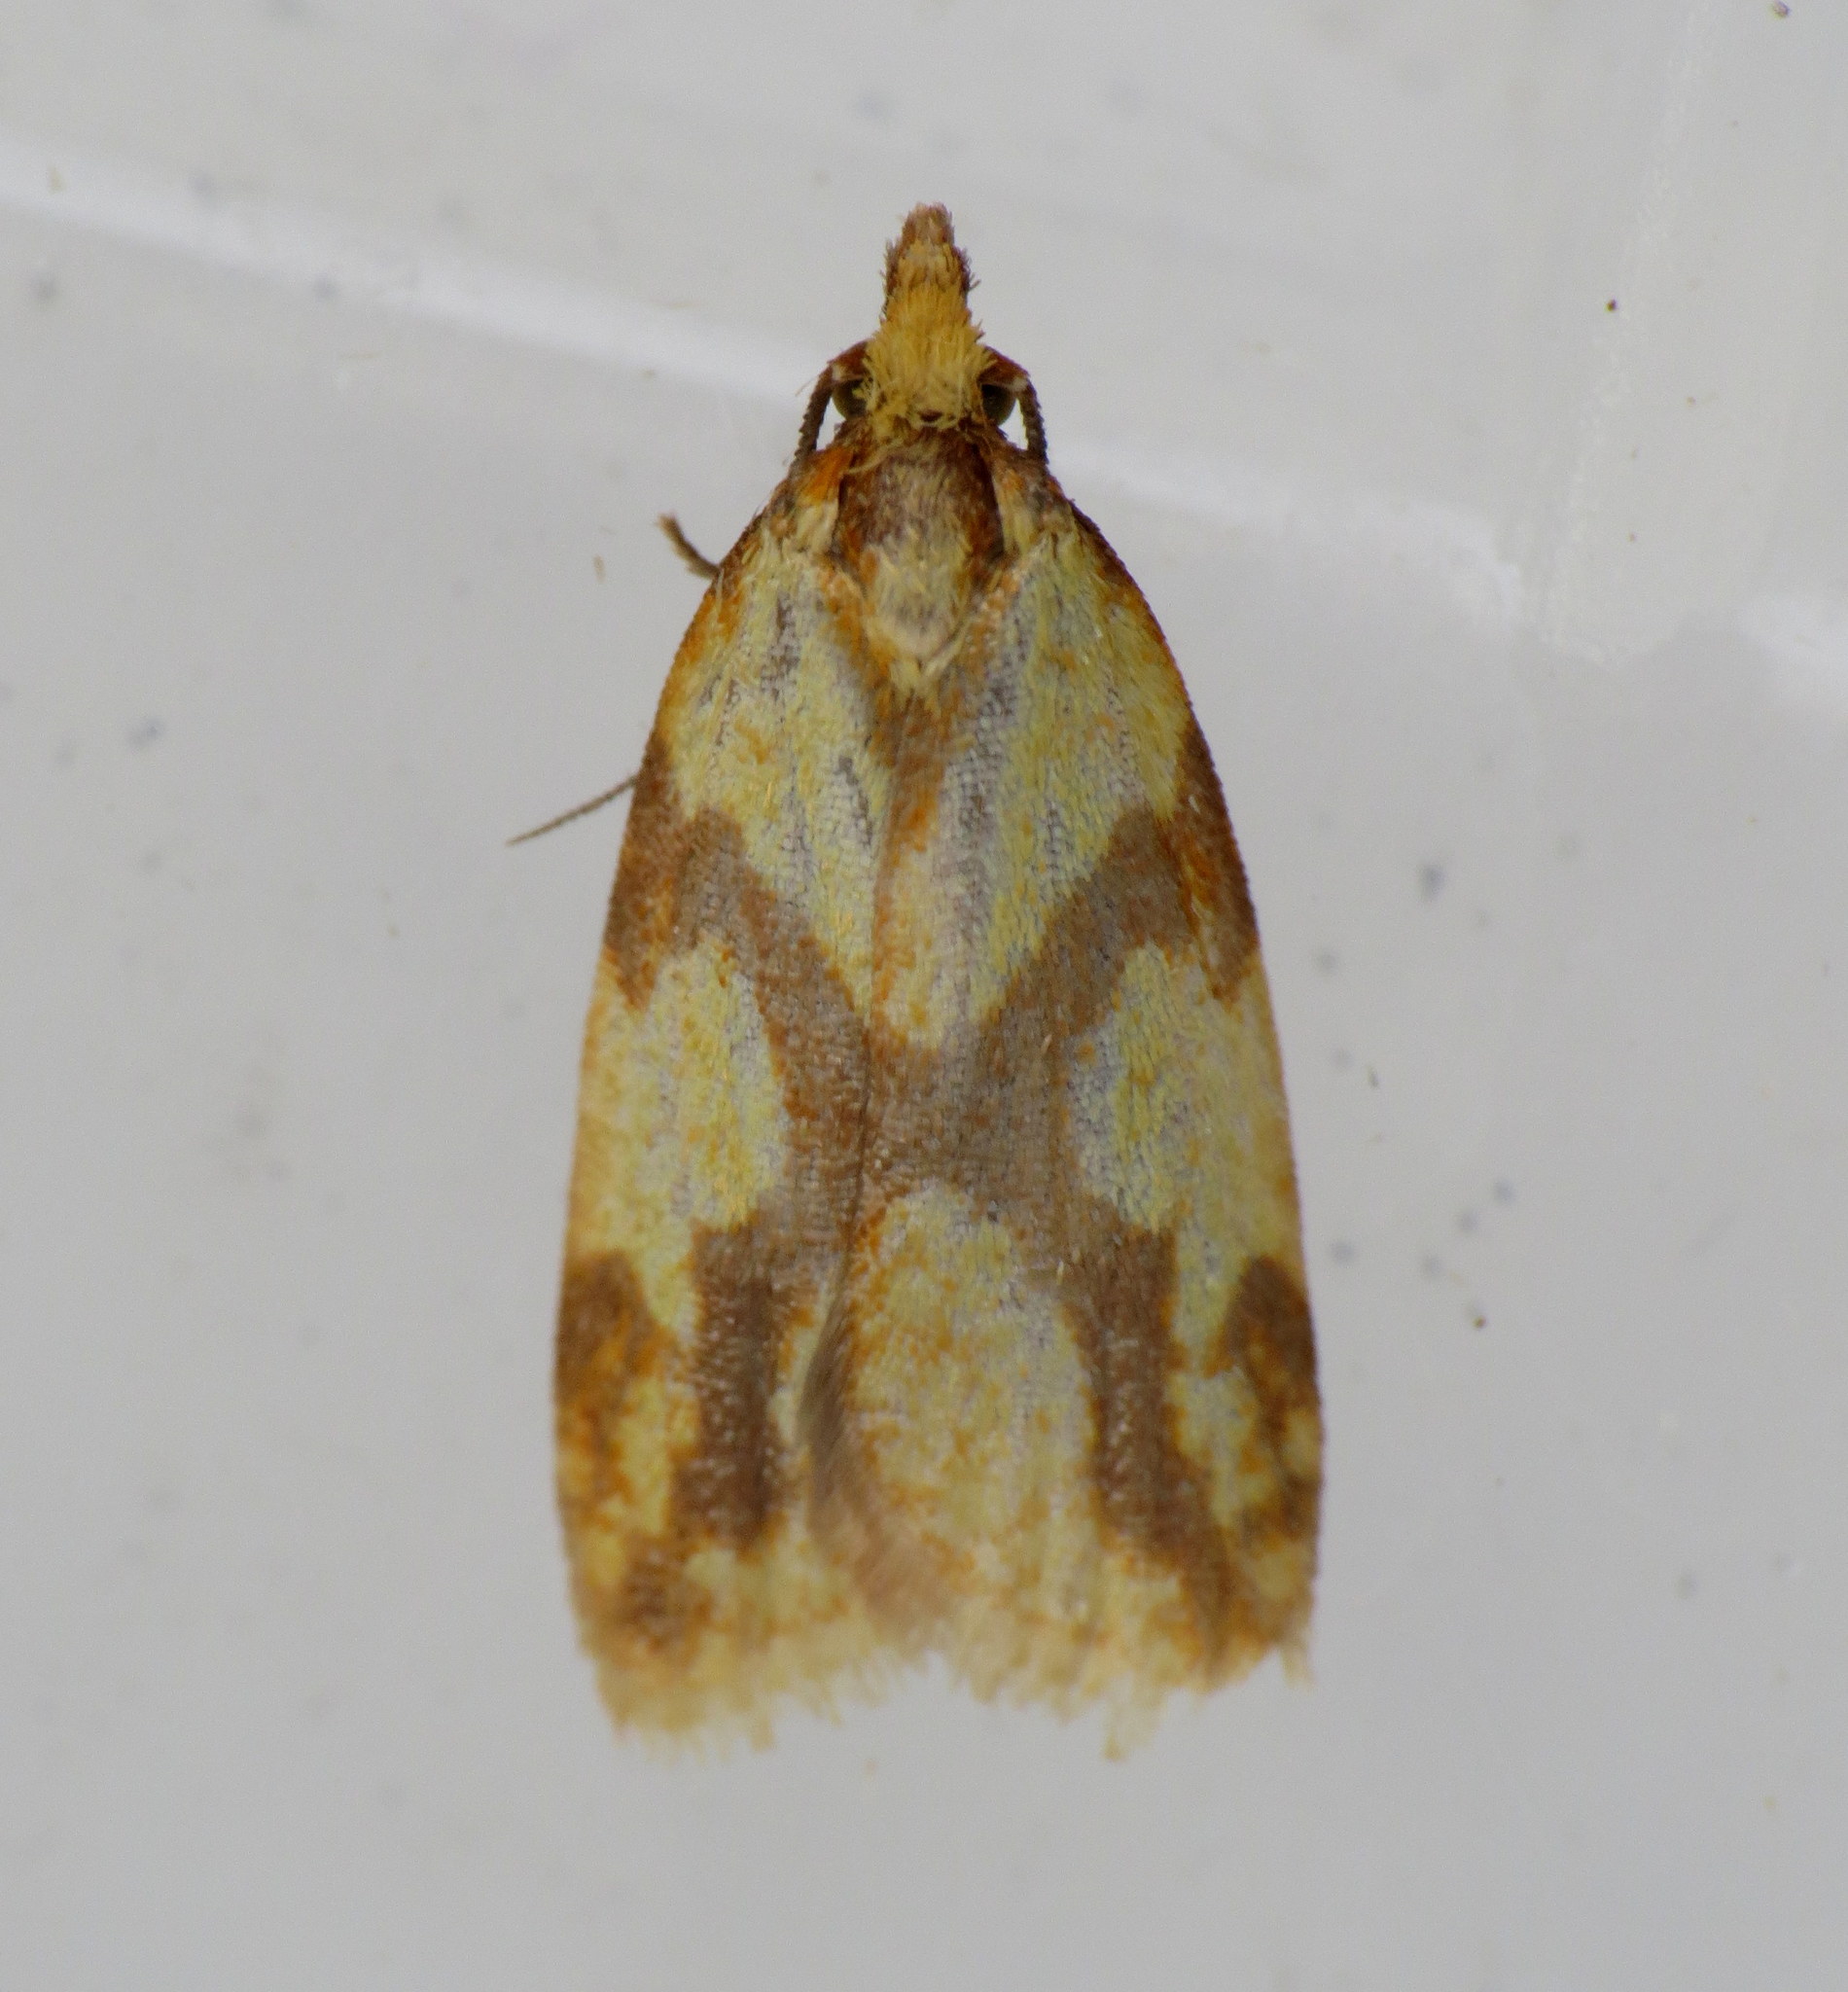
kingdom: Animalia
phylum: Arthropoda
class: Insecta
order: Lepidoptera
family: Tortricidae
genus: Sparganothis
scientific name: Sparganothis sulfureana
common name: Sparganothis fruitworm moth
